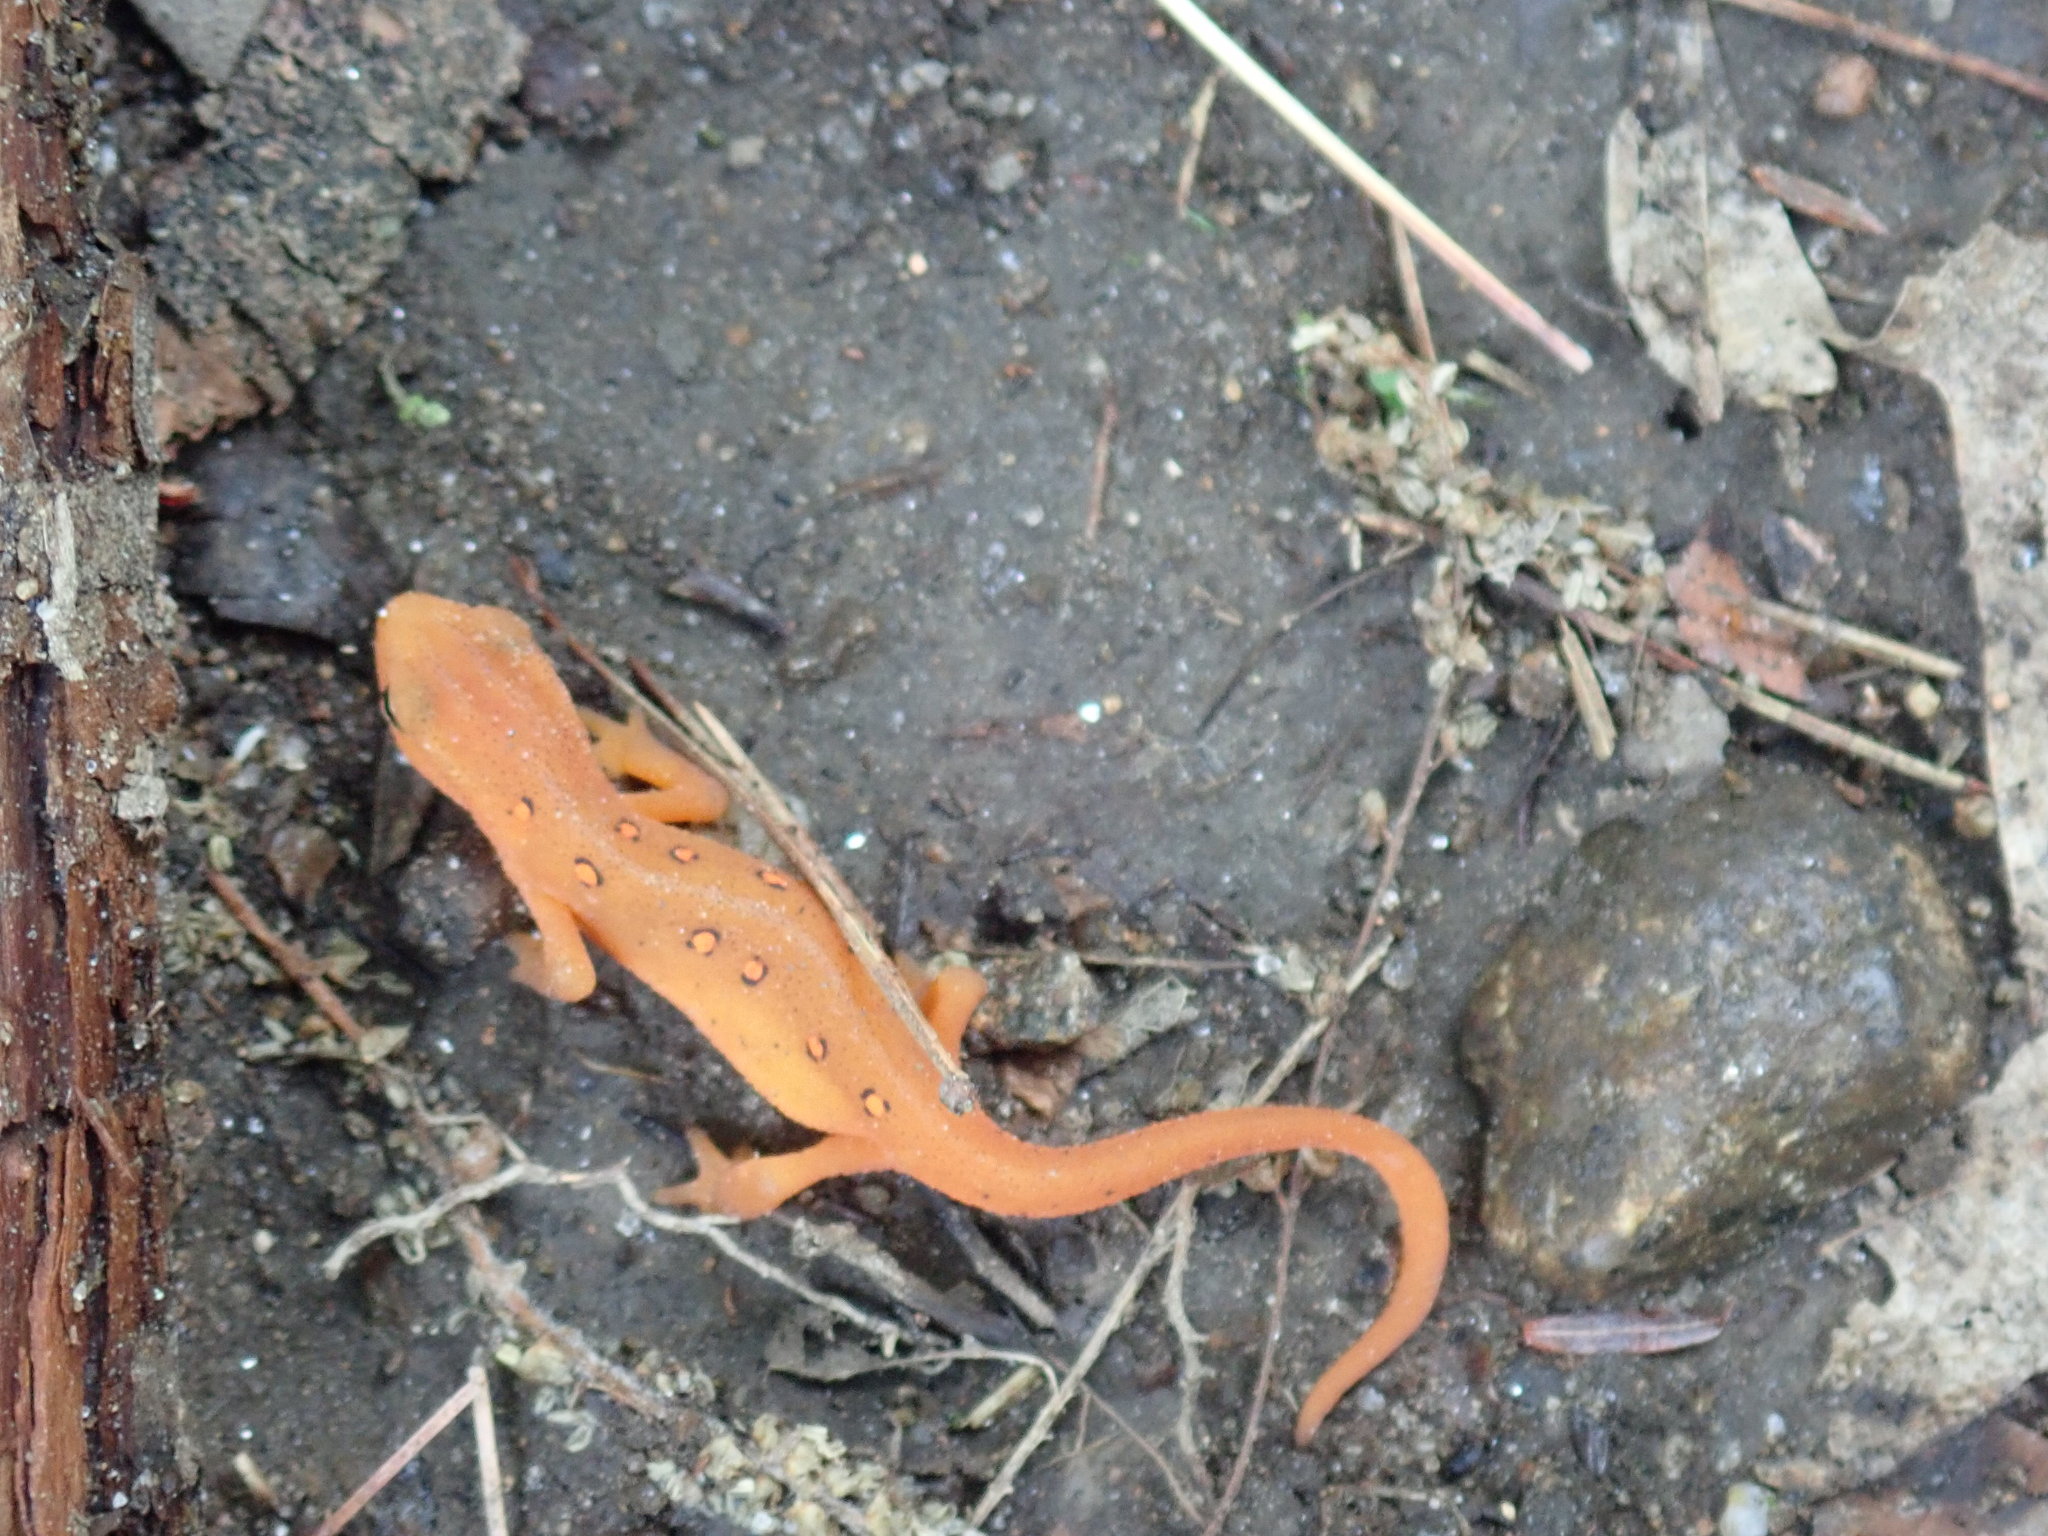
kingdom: Animalia
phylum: Chordata
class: Amphibia
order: Caudata
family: Salamandridae
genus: Notophthalmus
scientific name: Notophthalmus viridescens
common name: Eastern newt
